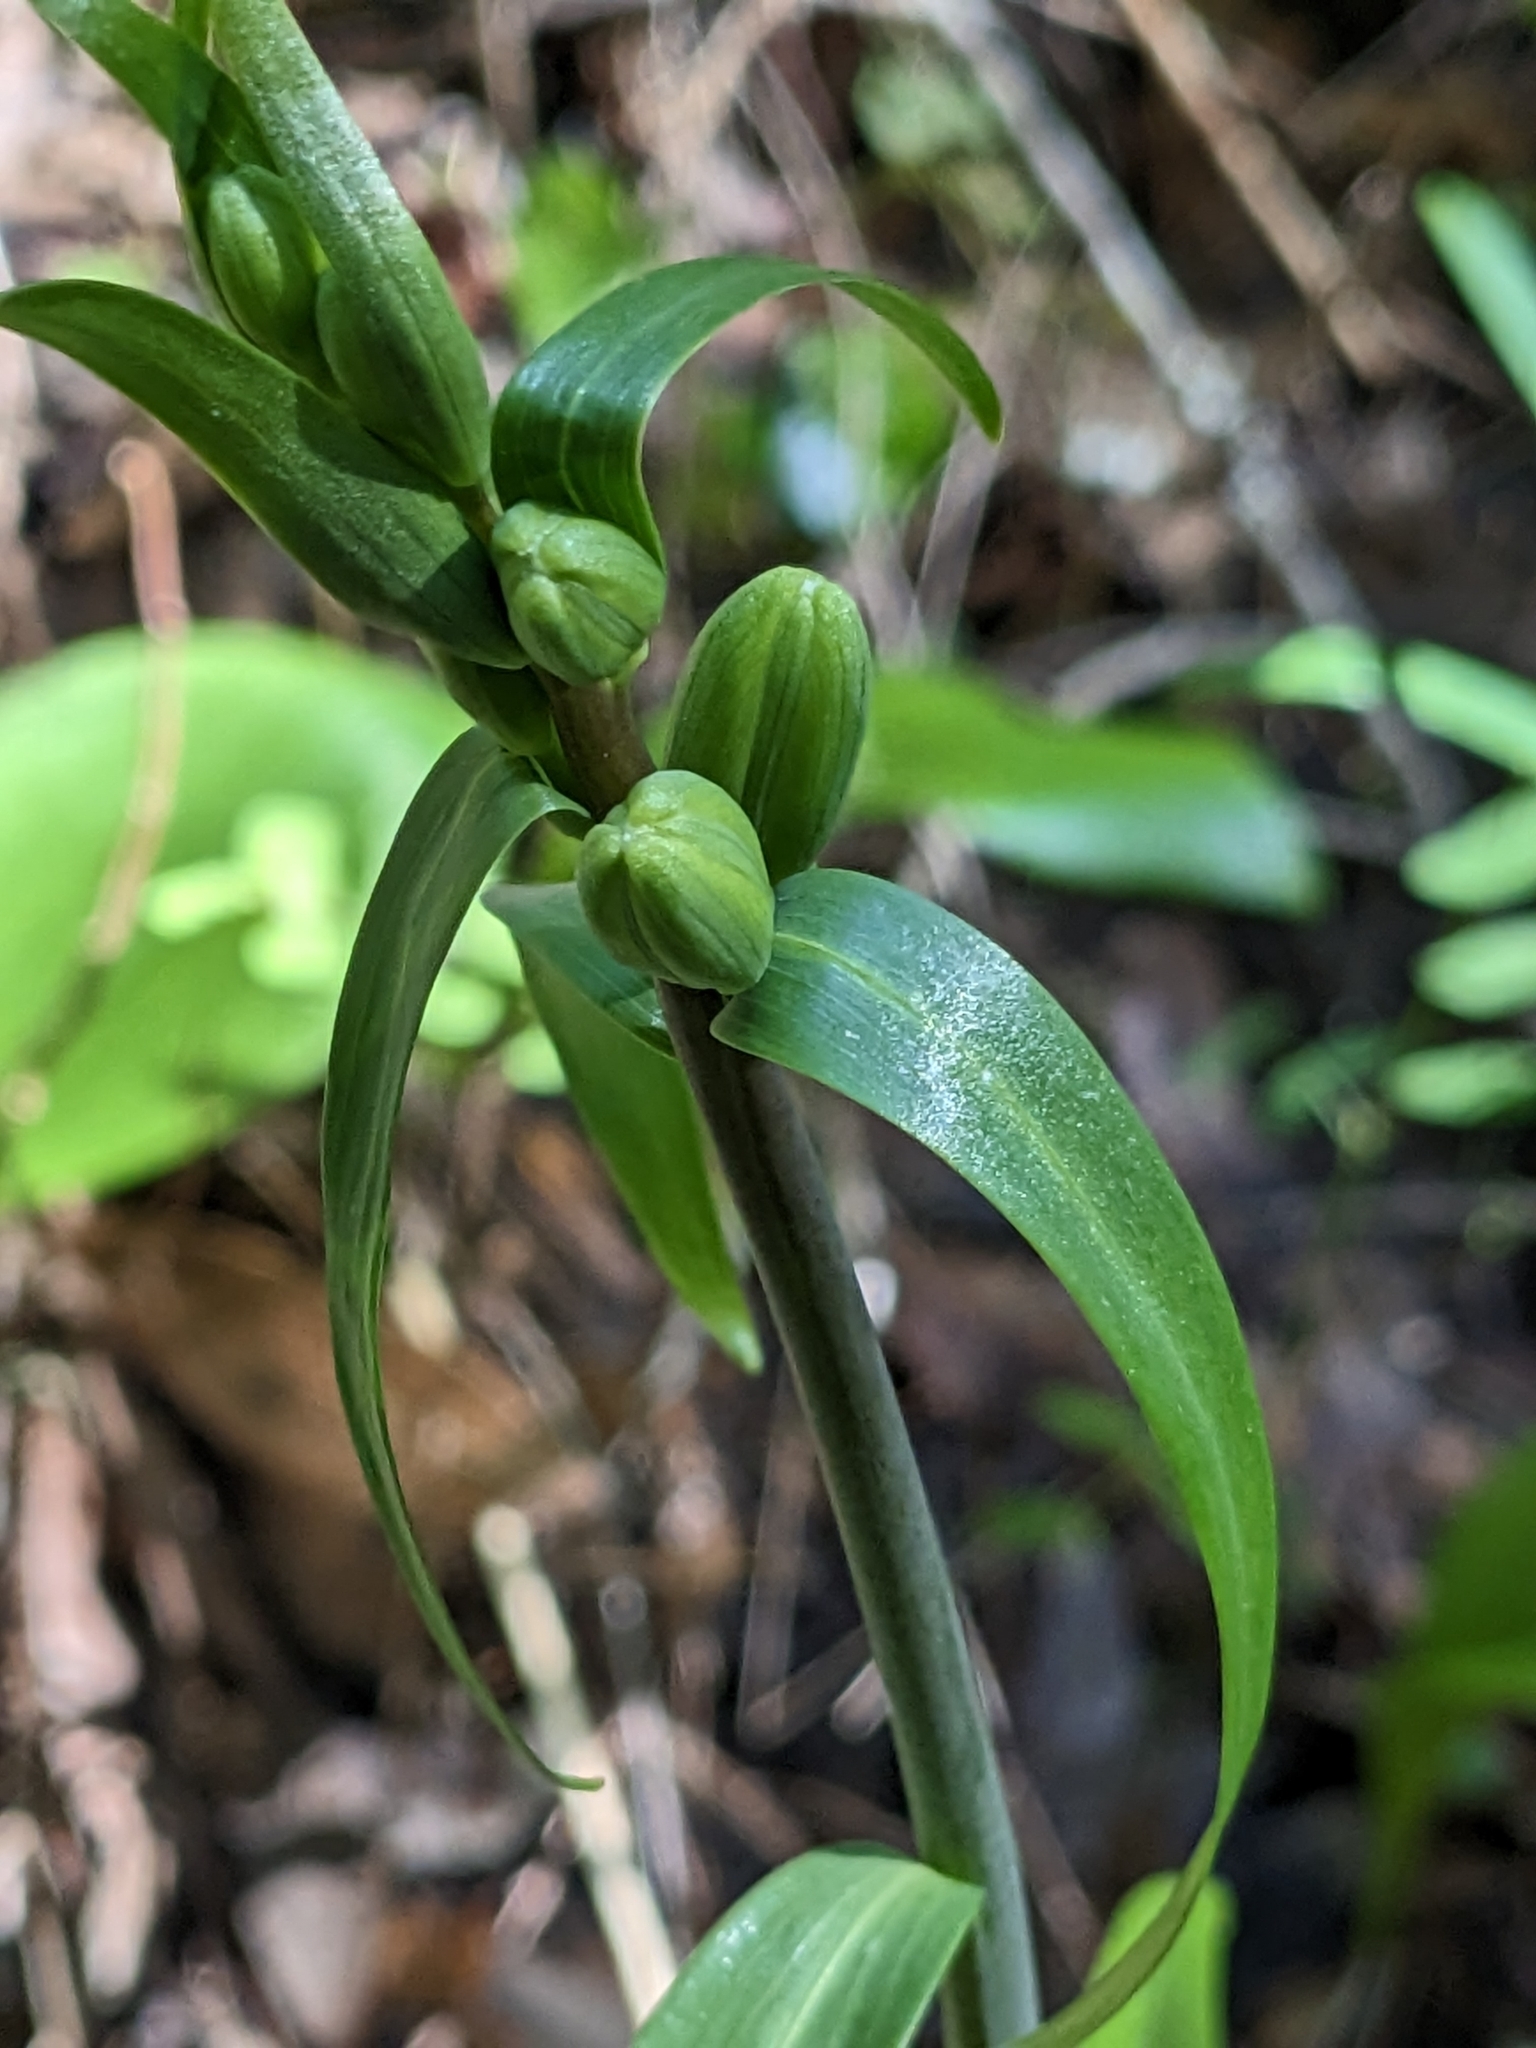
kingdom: Plantae
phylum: Tracheophyta
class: Liliopsida
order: Liliales
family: Liliaceae
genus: Fritillaria
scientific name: Fritillaria affinis
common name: Ojai fritillary
